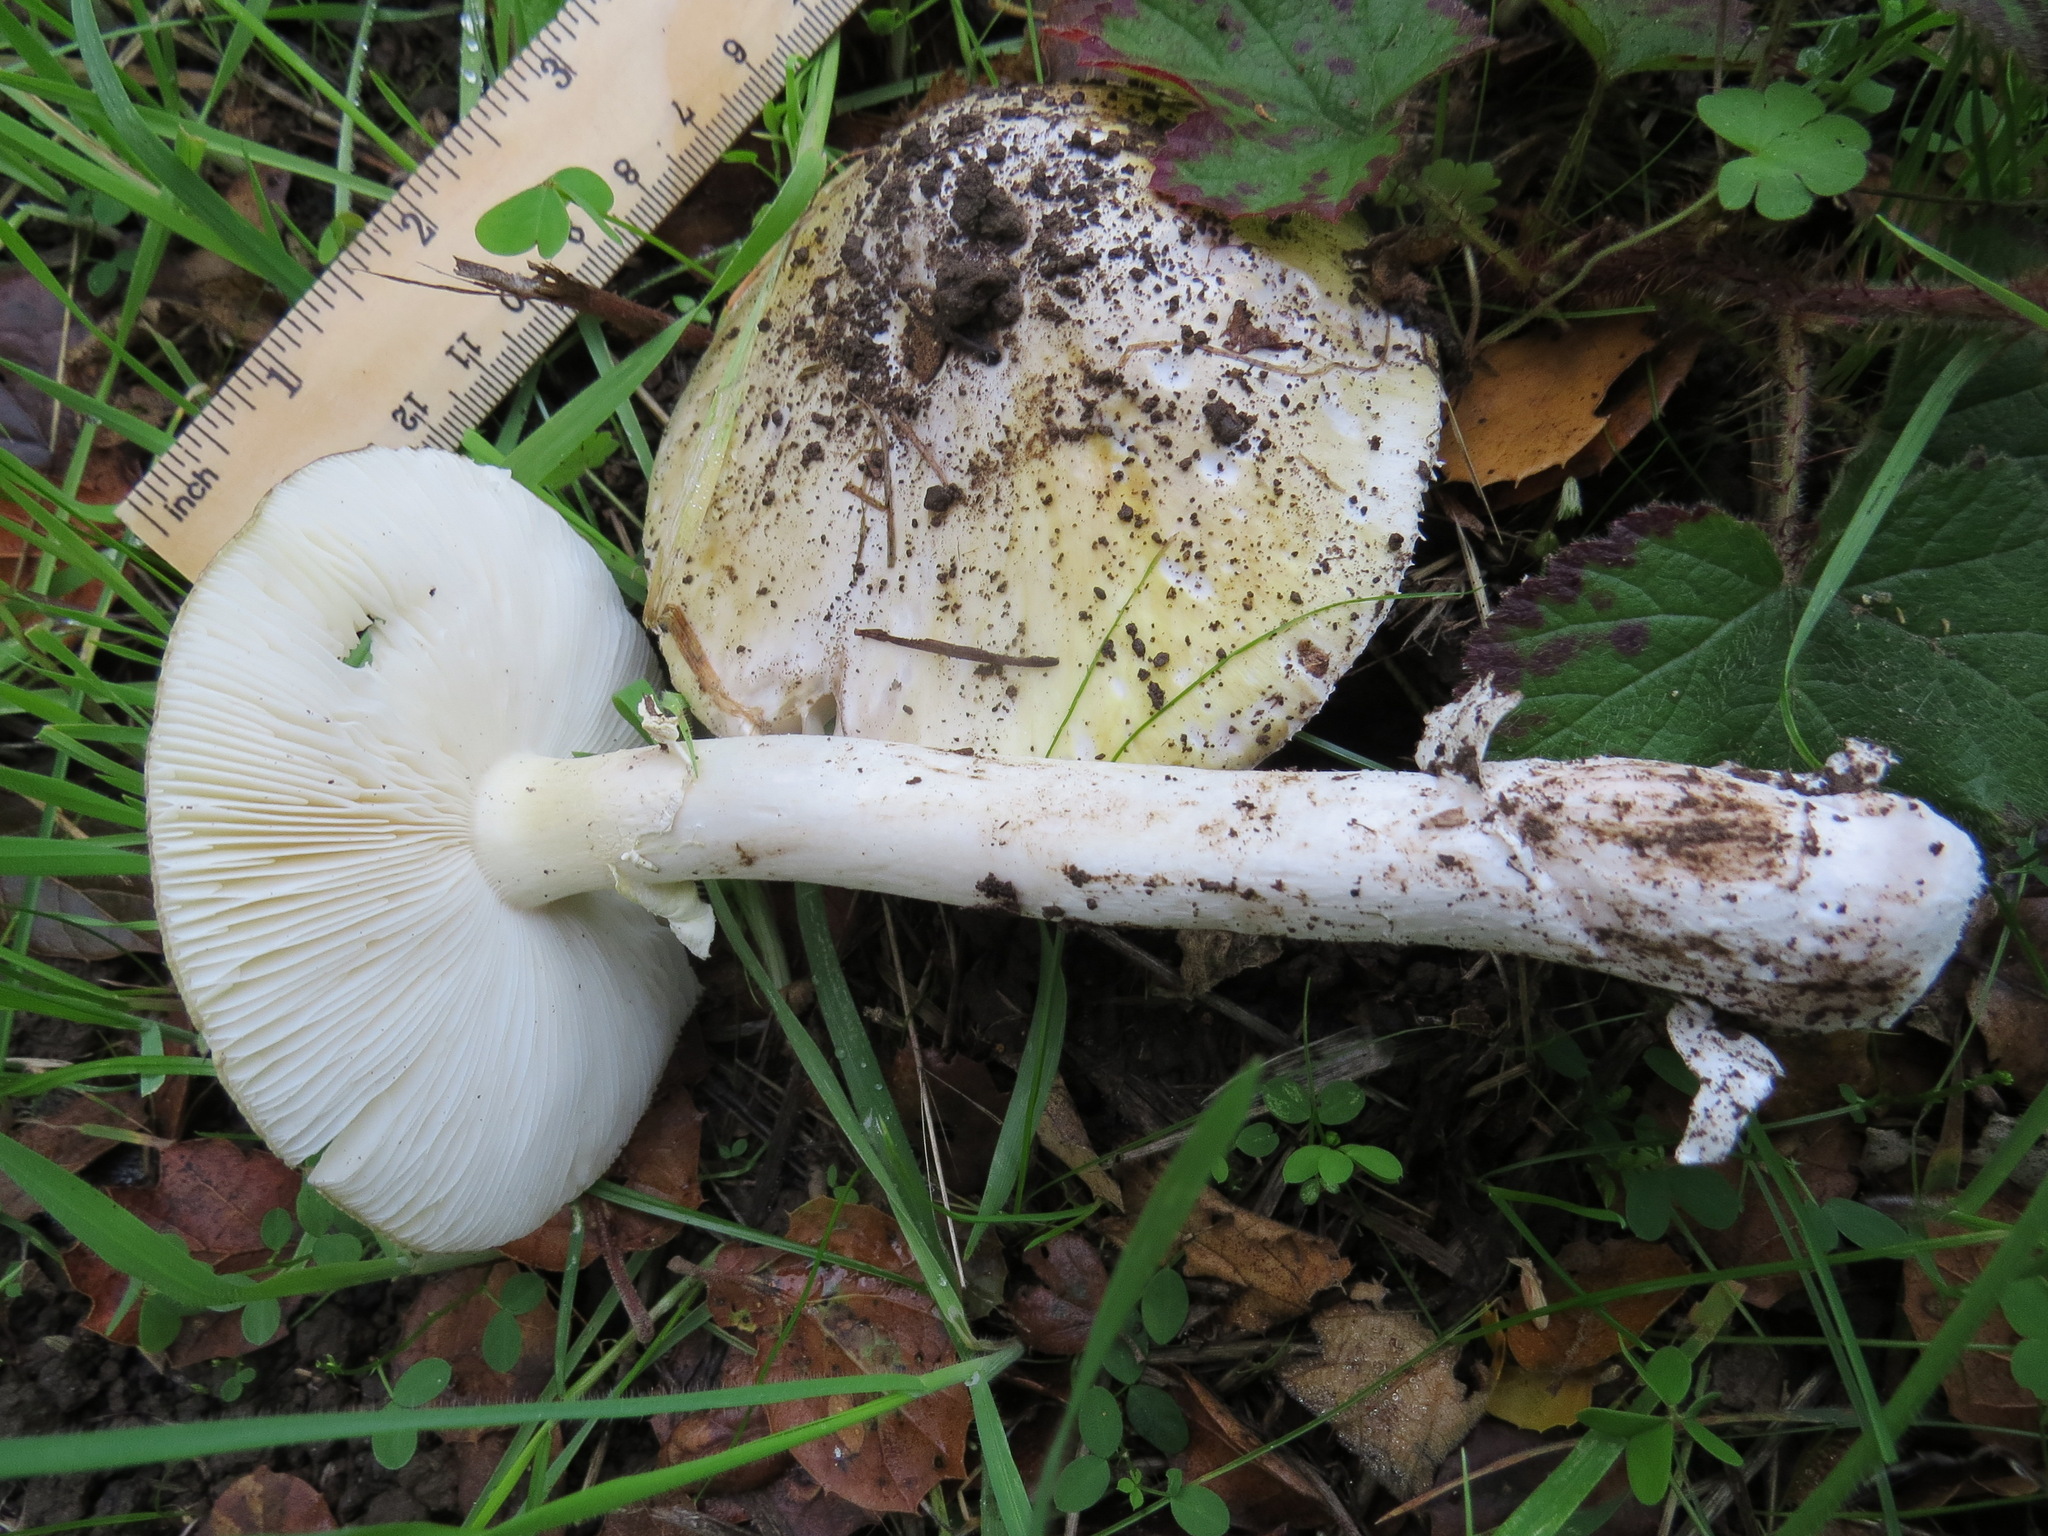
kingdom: Fungi
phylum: Basidiomycota
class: Agaricomycetes
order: Agaricales
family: Amanitaceae
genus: Amanita
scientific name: Amanita phalloides
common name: Death cap
